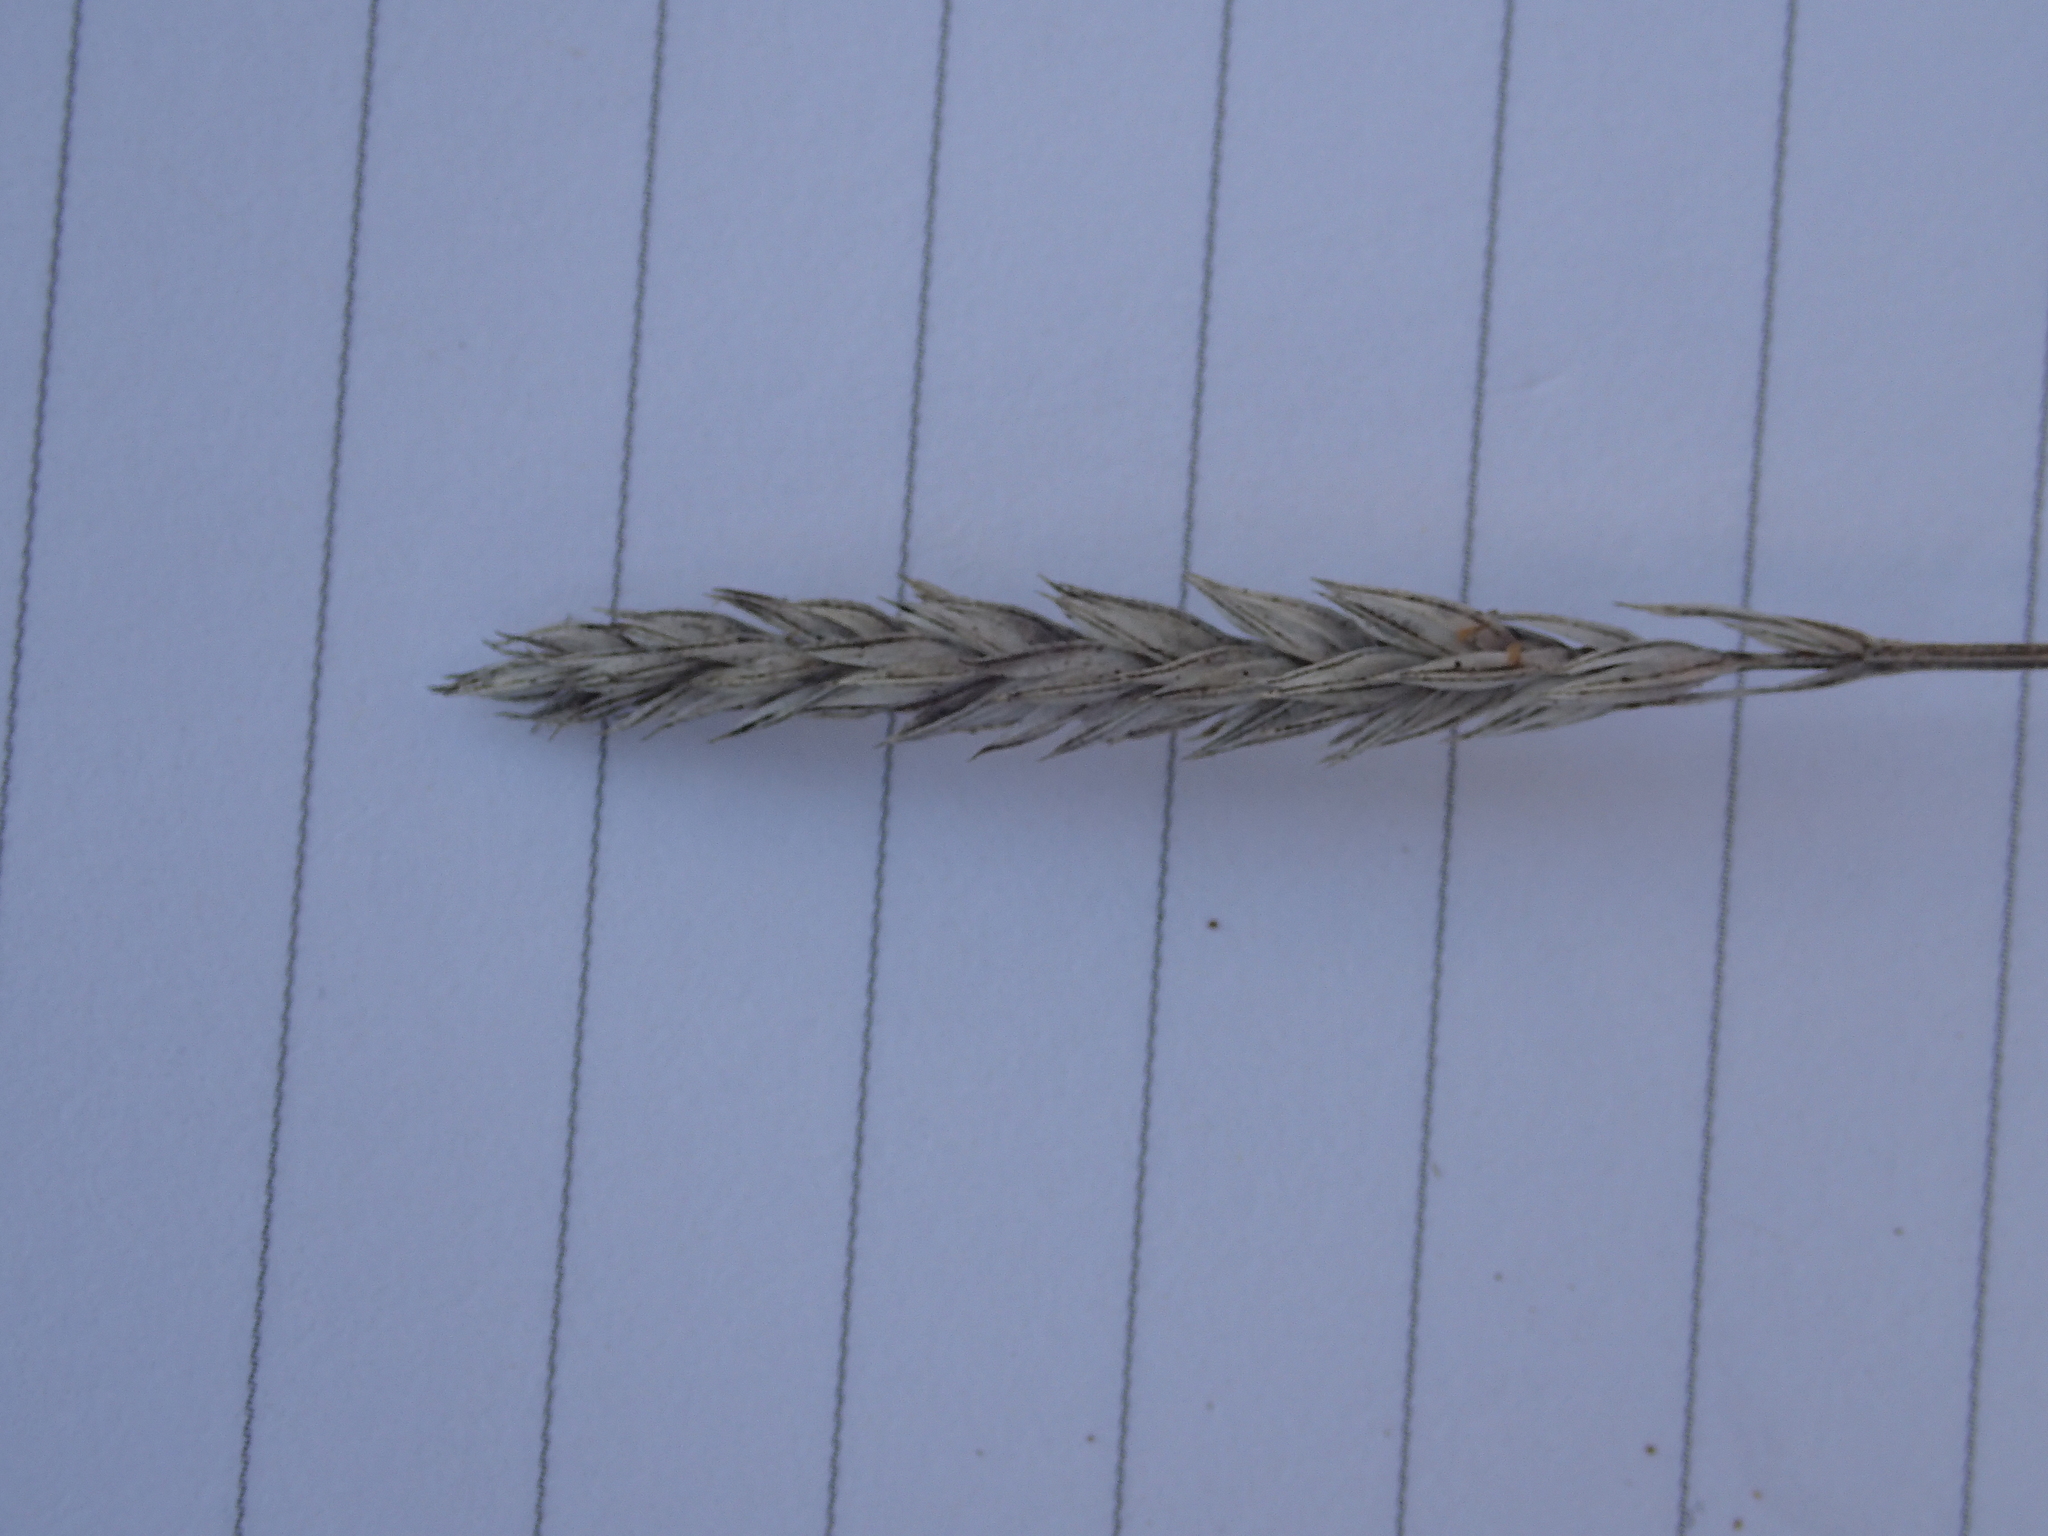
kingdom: Plantae
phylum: Tracheophyta
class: Magnoliopsida
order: Gentianales
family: Rubiaceae
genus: Crucianella
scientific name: Crucianella angustifolia
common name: Narrowleaf crucianella
